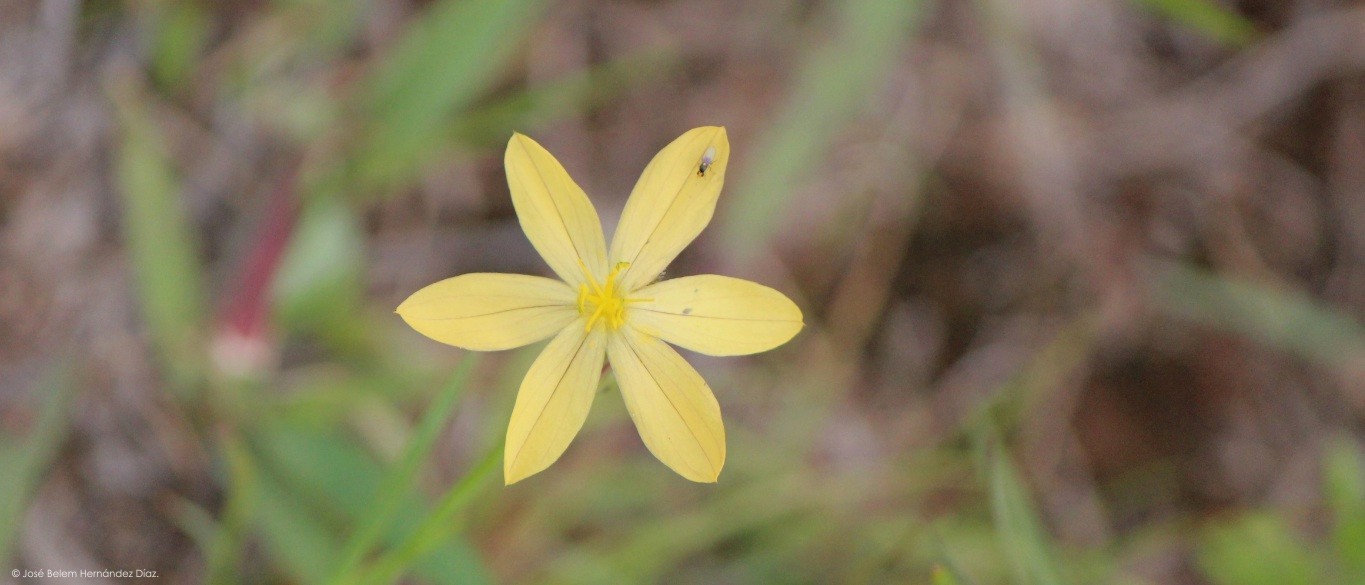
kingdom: Plantae
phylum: Tracheophyta
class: Liliopsida
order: Asparagales
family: Iridaceae
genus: Sisyrinchium
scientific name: Sisyrinchium tenuifolium
